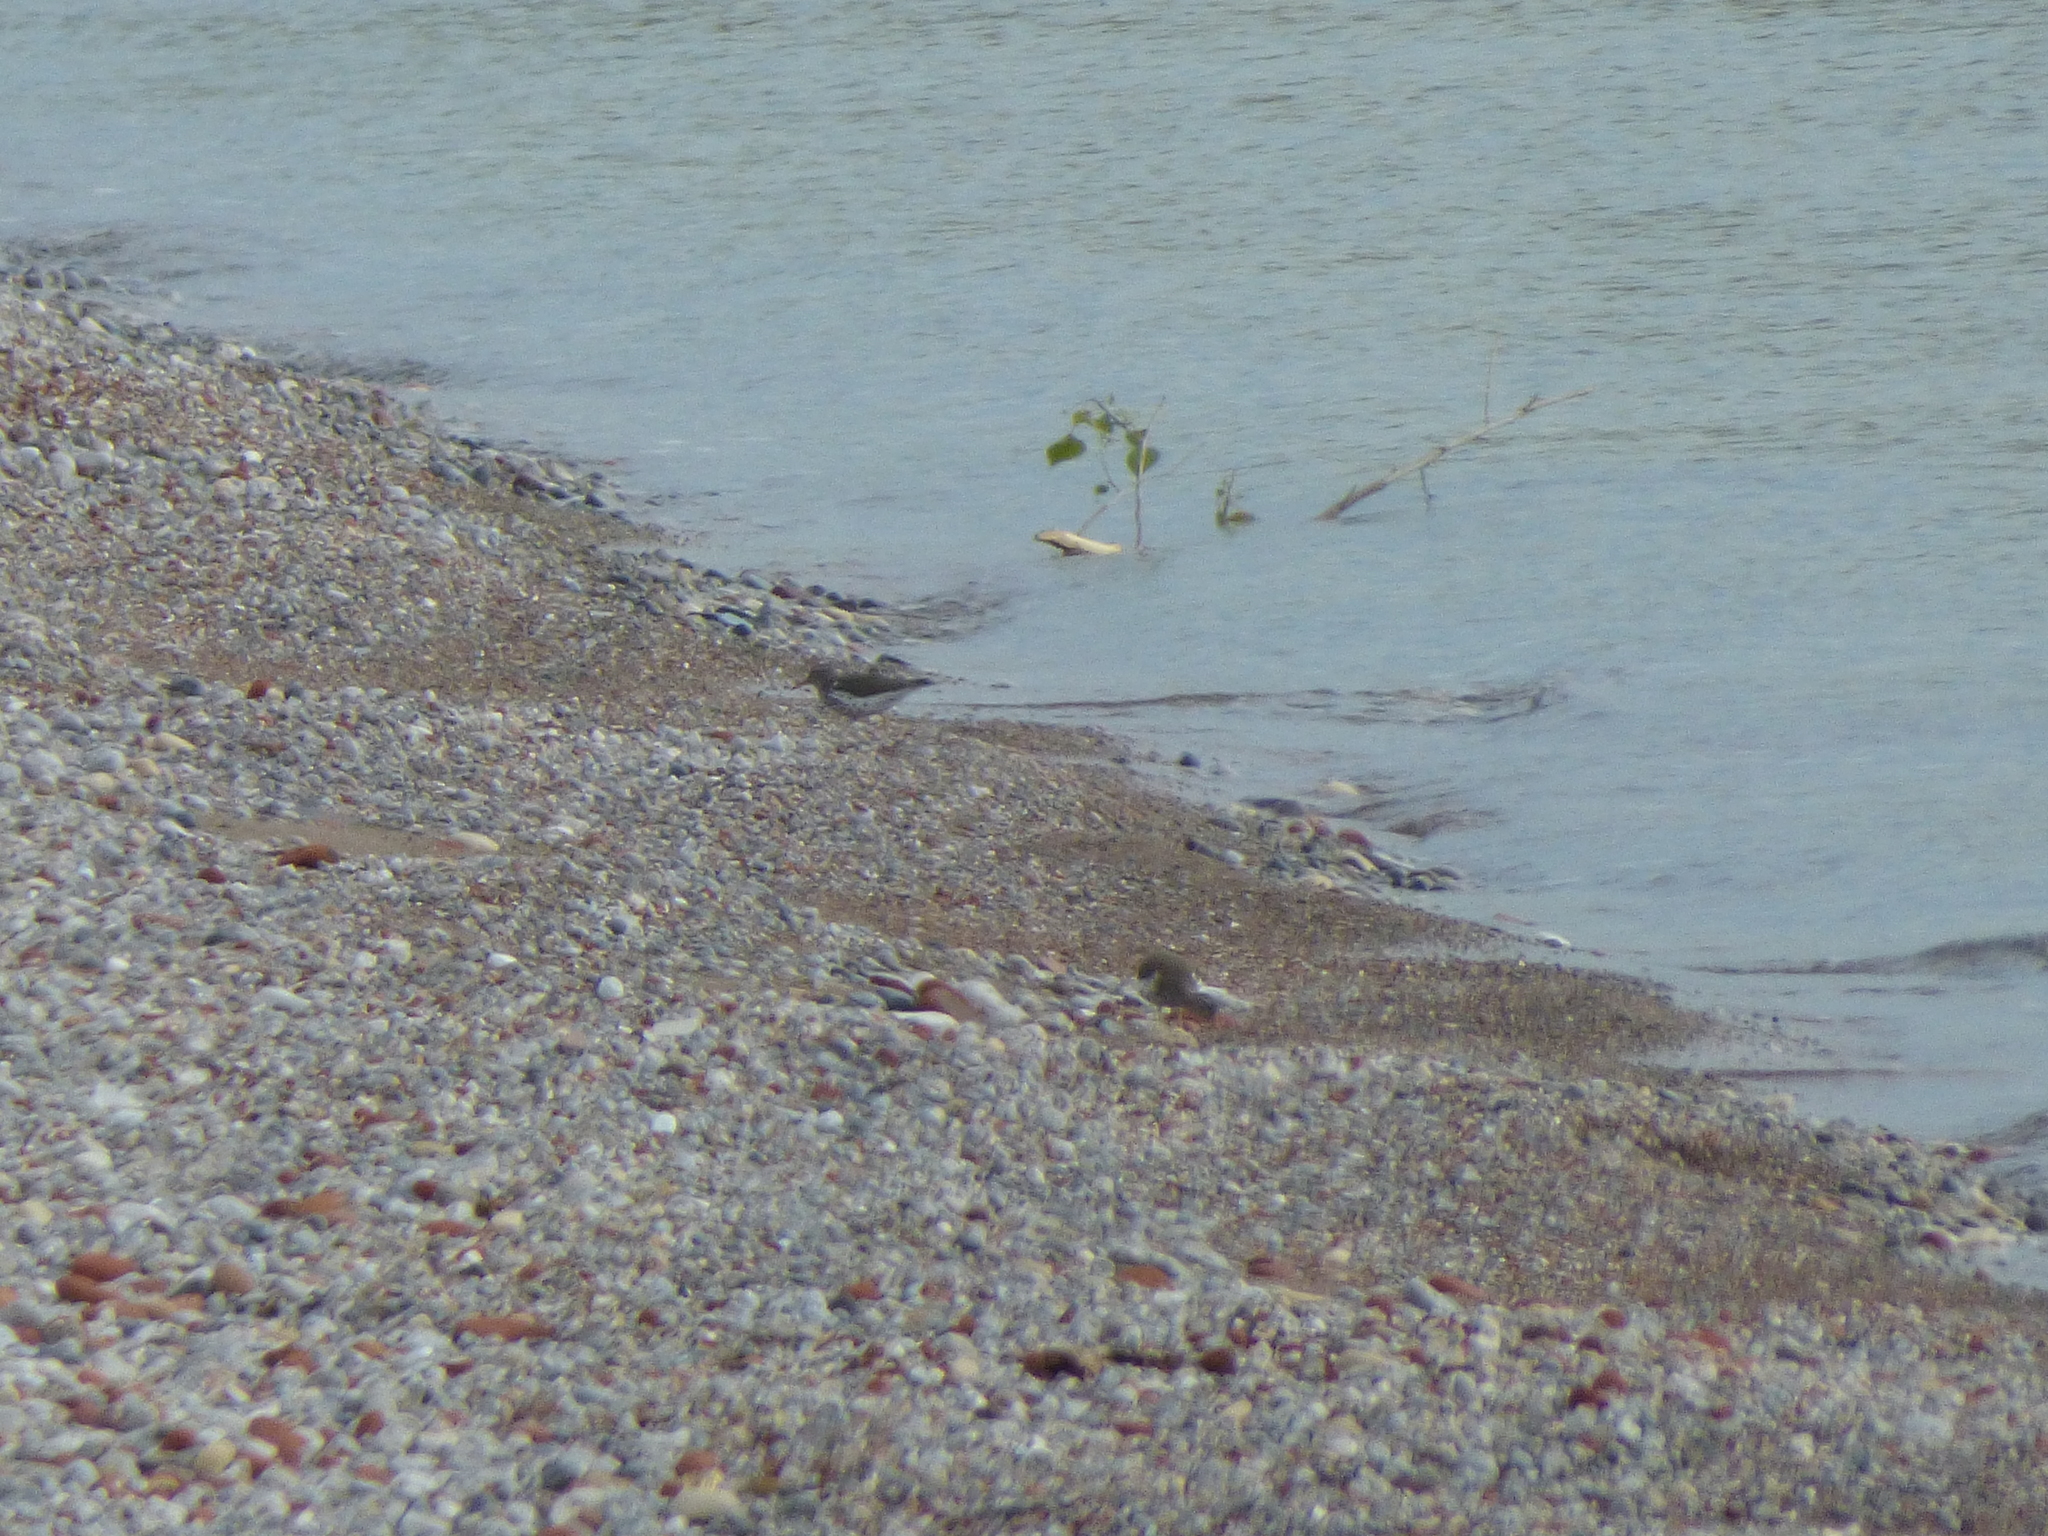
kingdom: Animalia
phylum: Chordata
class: Aves
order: Charadriiformes
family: Scolopacidae
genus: Actitis
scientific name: Actitis macularius
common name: Spotted sandpiper
